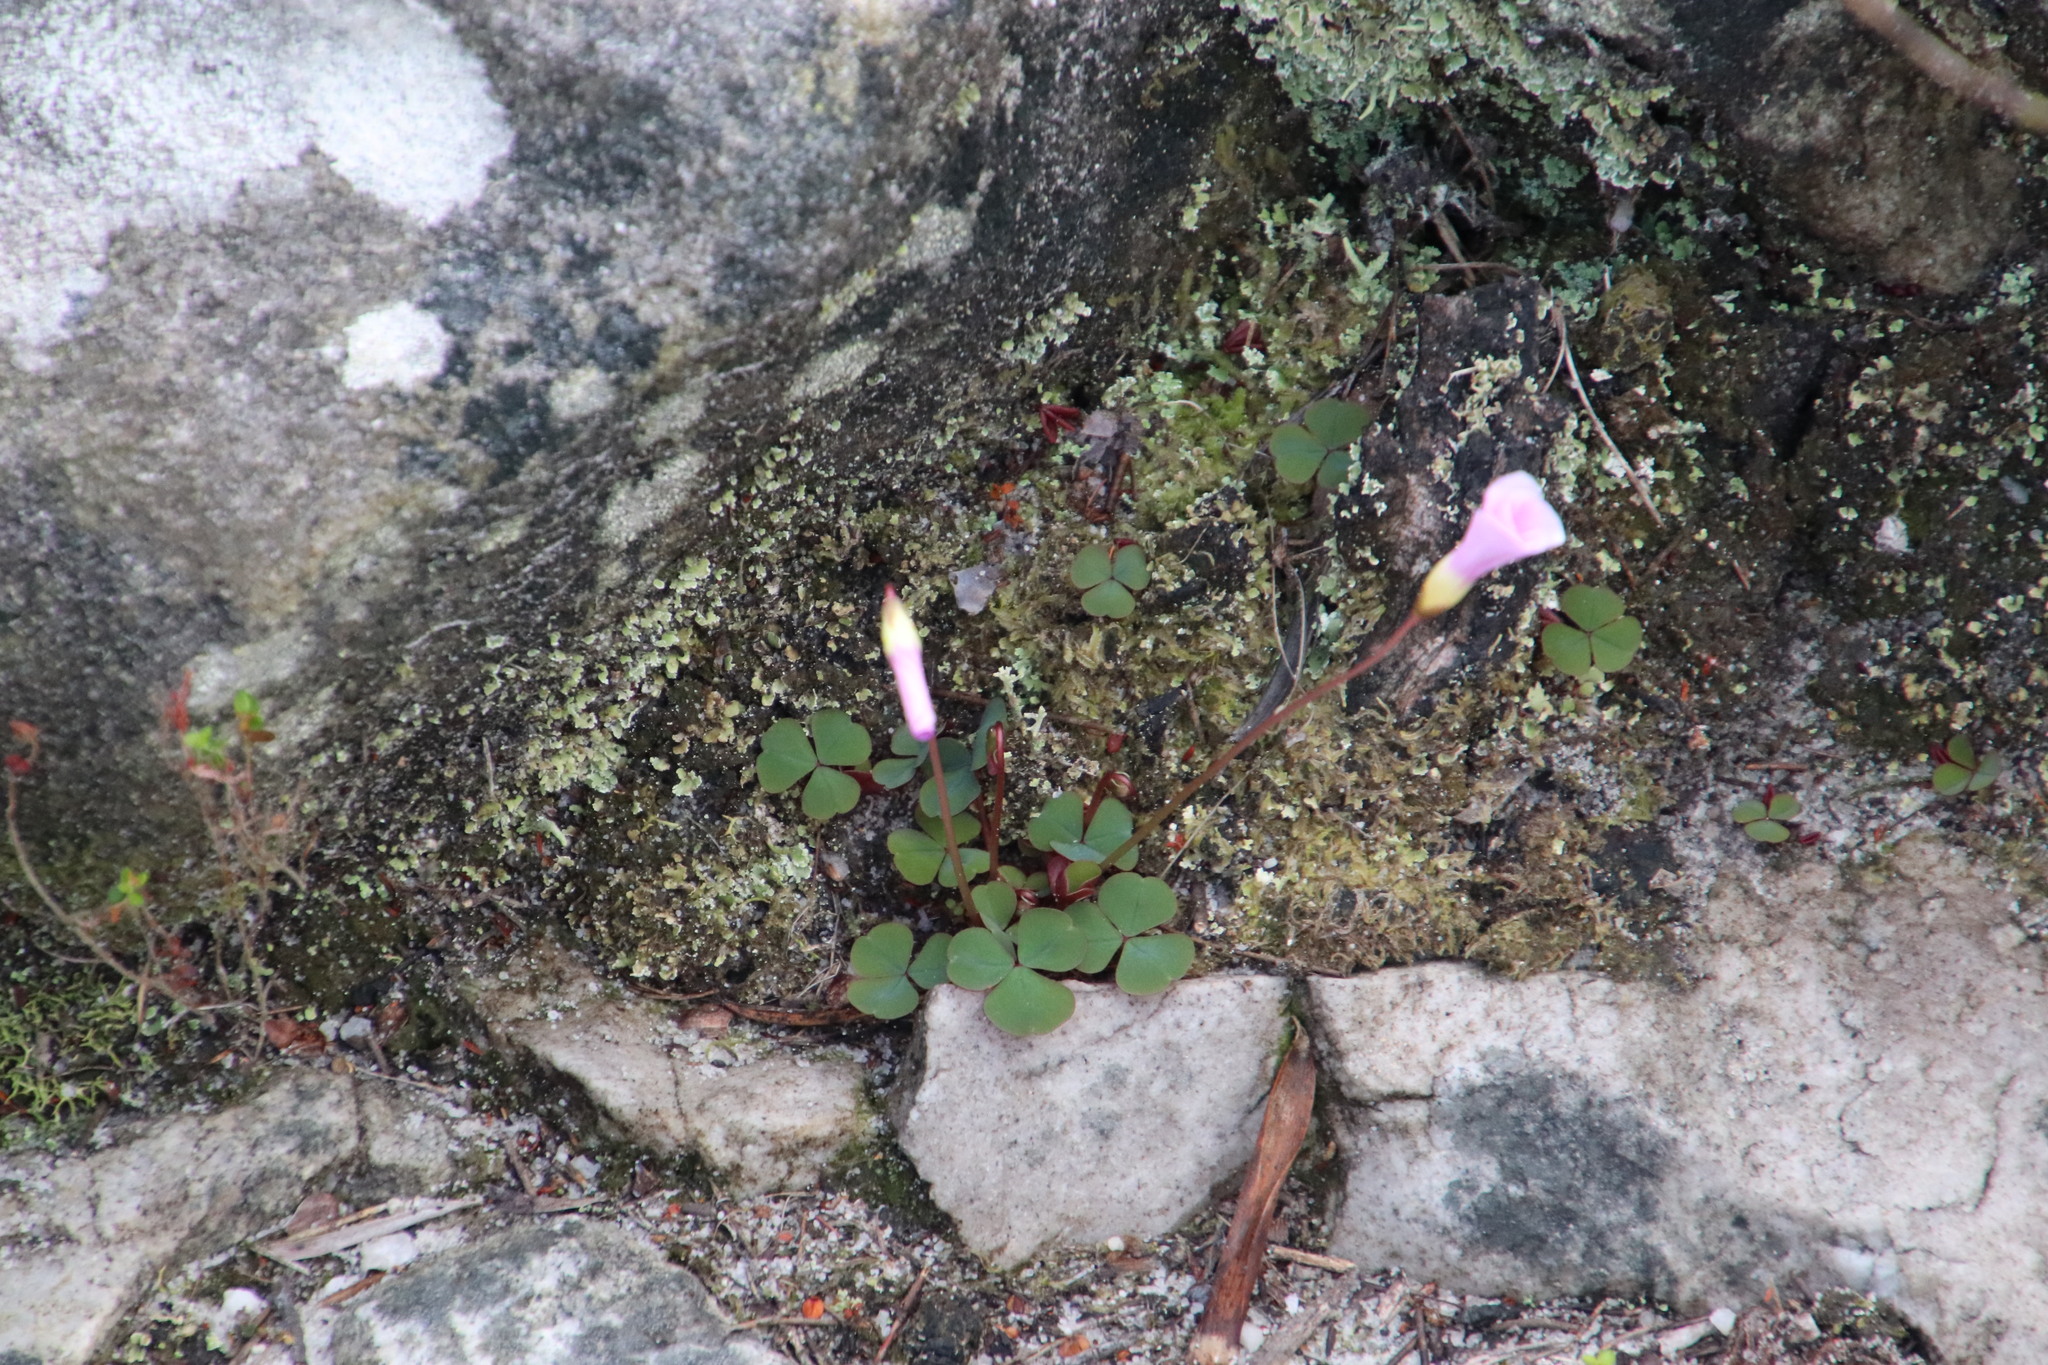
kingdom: Plantae
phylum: Tracheophyta
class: Magnoliopsida
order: Oxalidales
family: Oxalidaceae
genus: Oxalis
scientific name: Oxalis commutata
